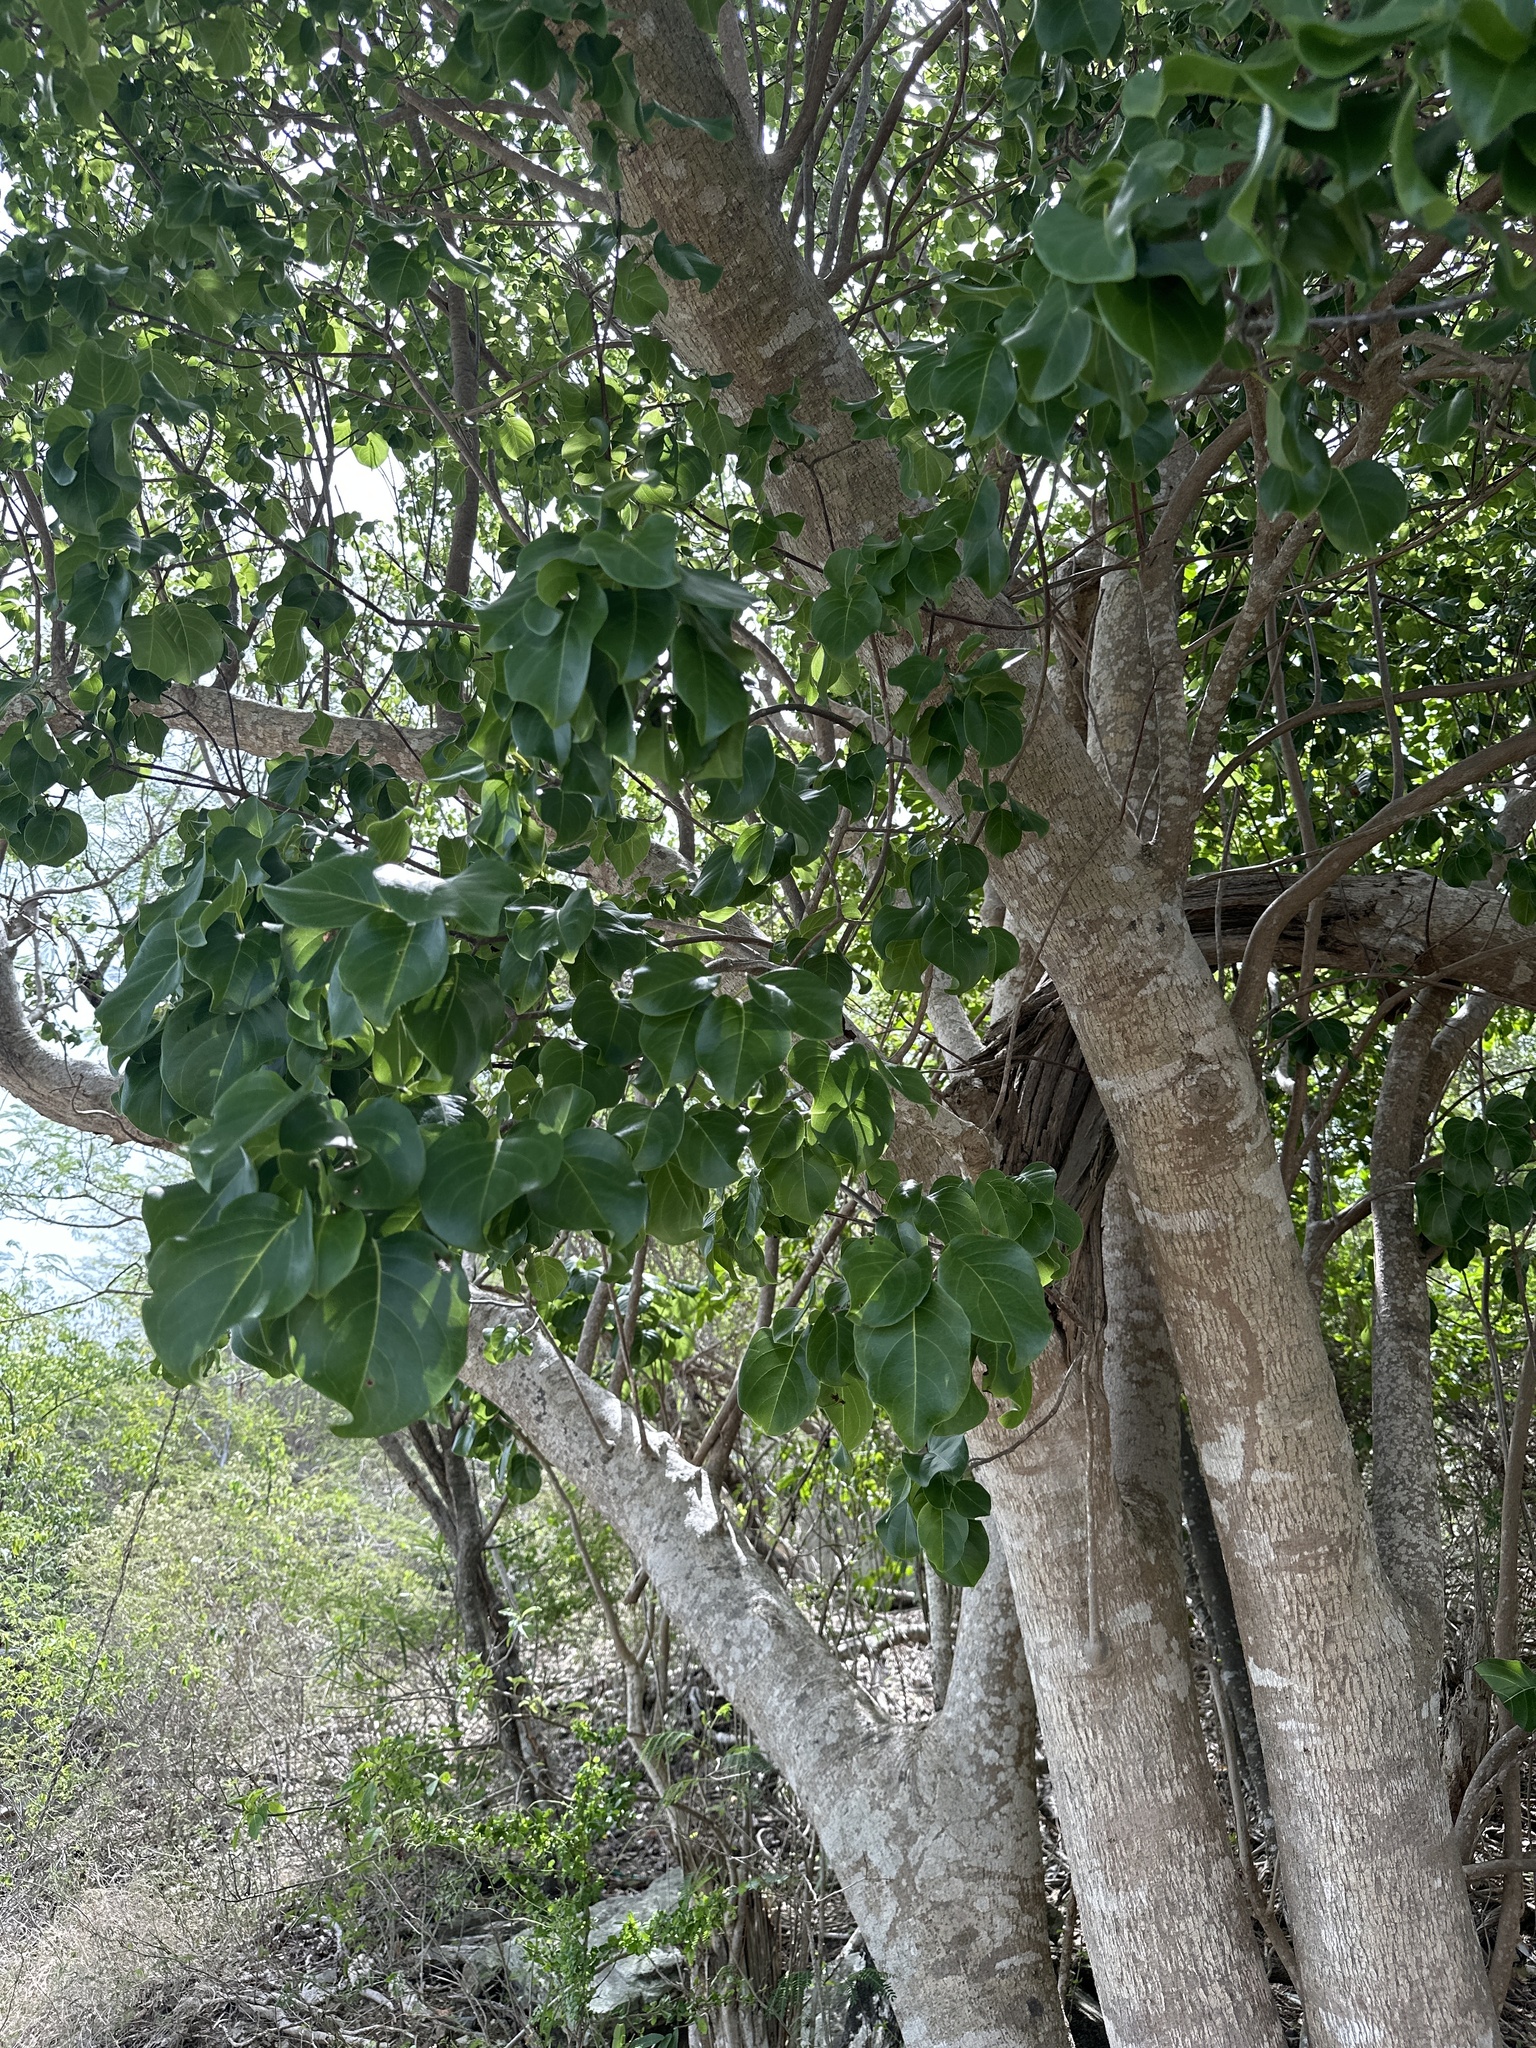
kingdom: Plantae
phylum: Tracheophyta
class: Magnoliopsida
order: Caryophyllales
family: Nyctaginaceae
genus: Pisonia
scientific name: Pisonia subcordata
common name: Mampoo
